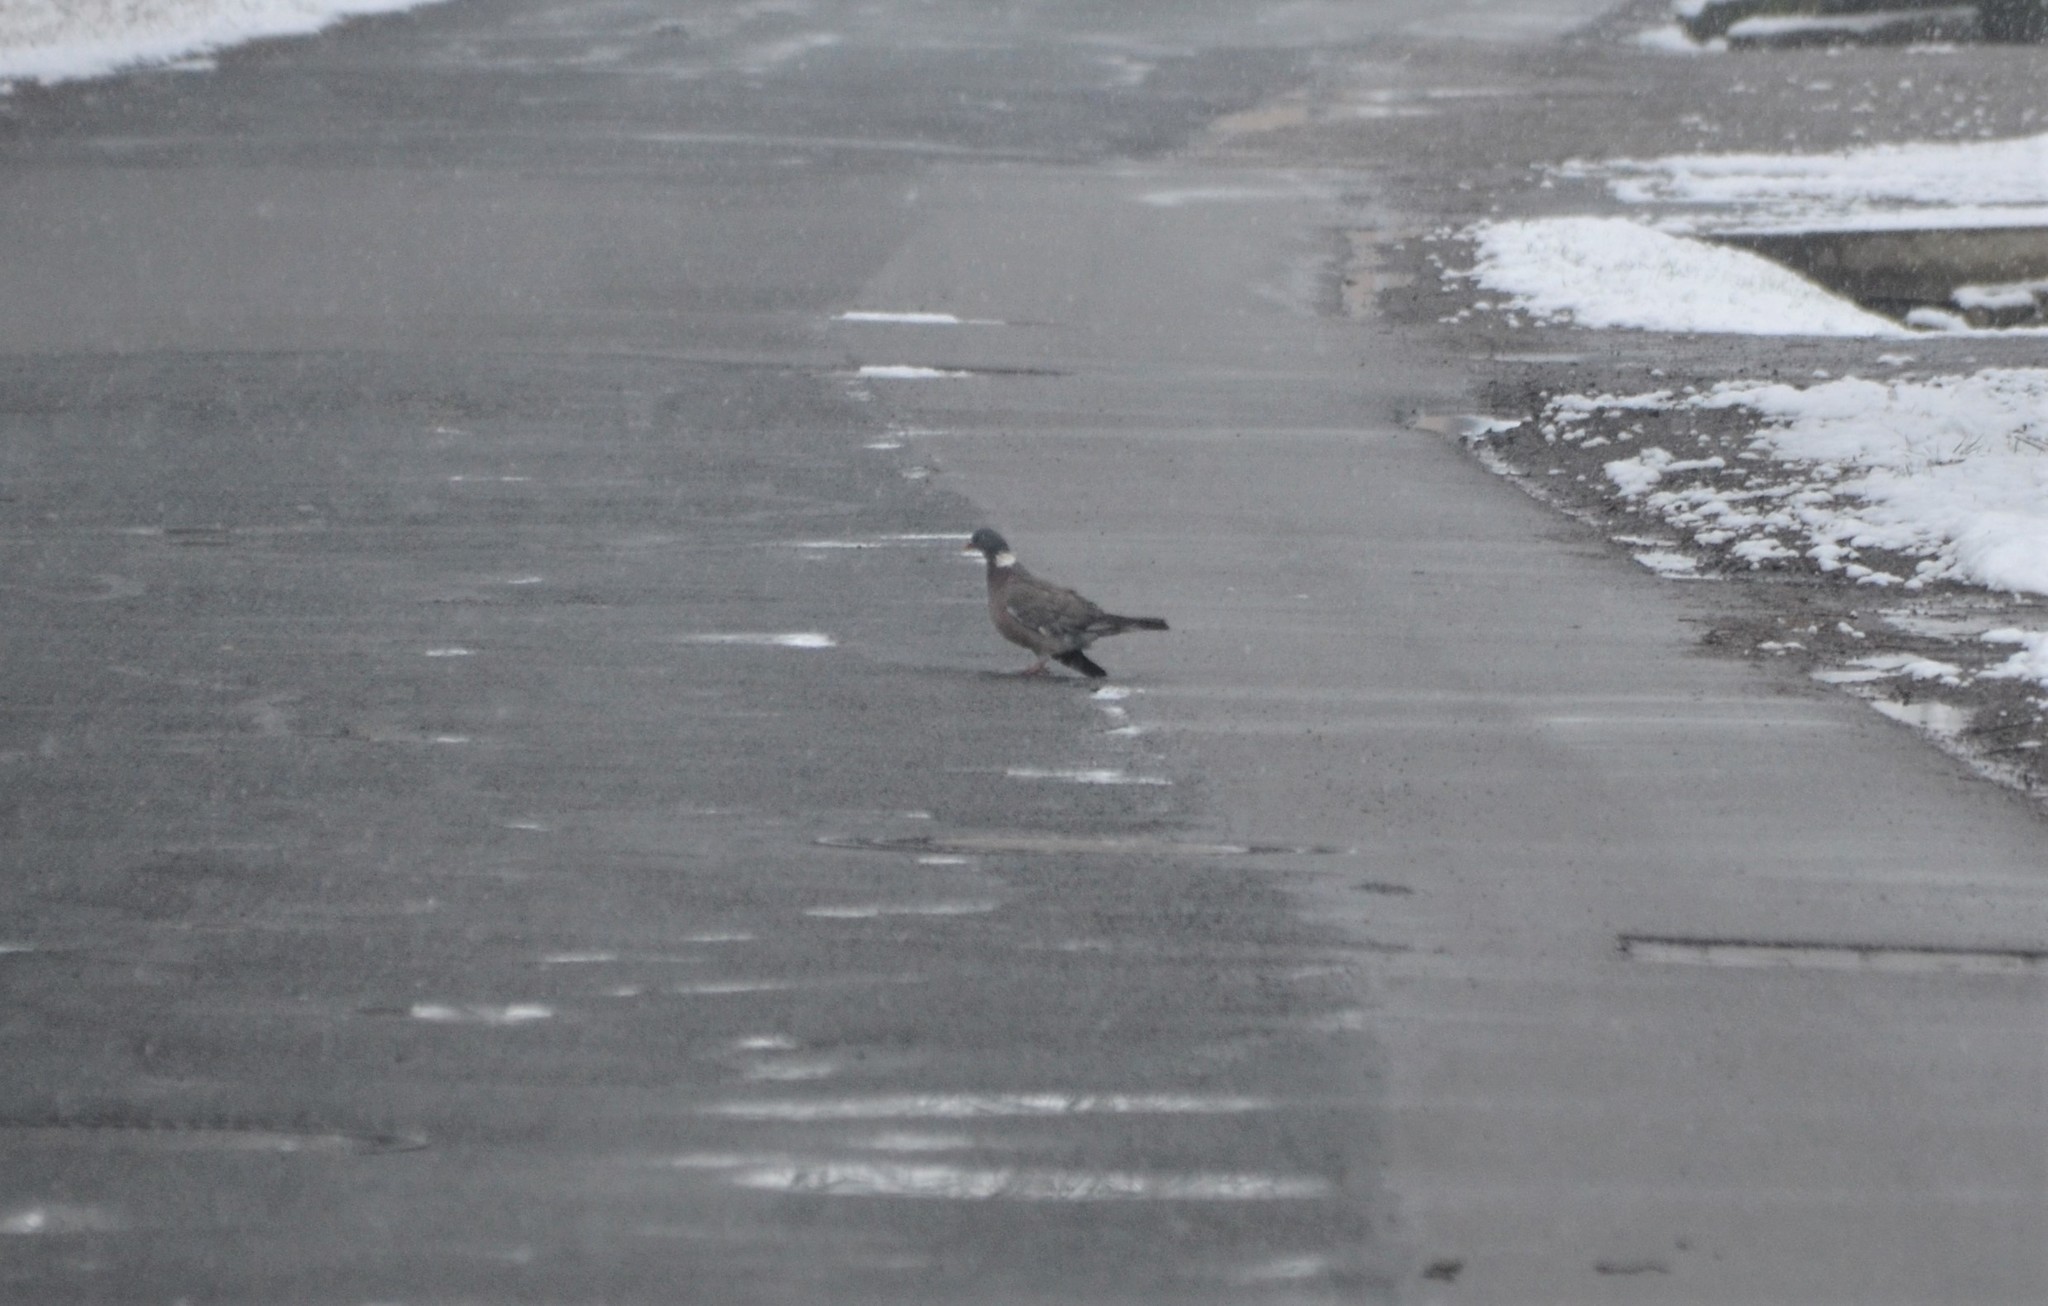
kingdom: Animalia
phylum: Chordata
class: Aves
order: Columbiformes
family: Columbidae
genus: Columba
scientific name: Columba palumbus
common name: Common wood pigeon
